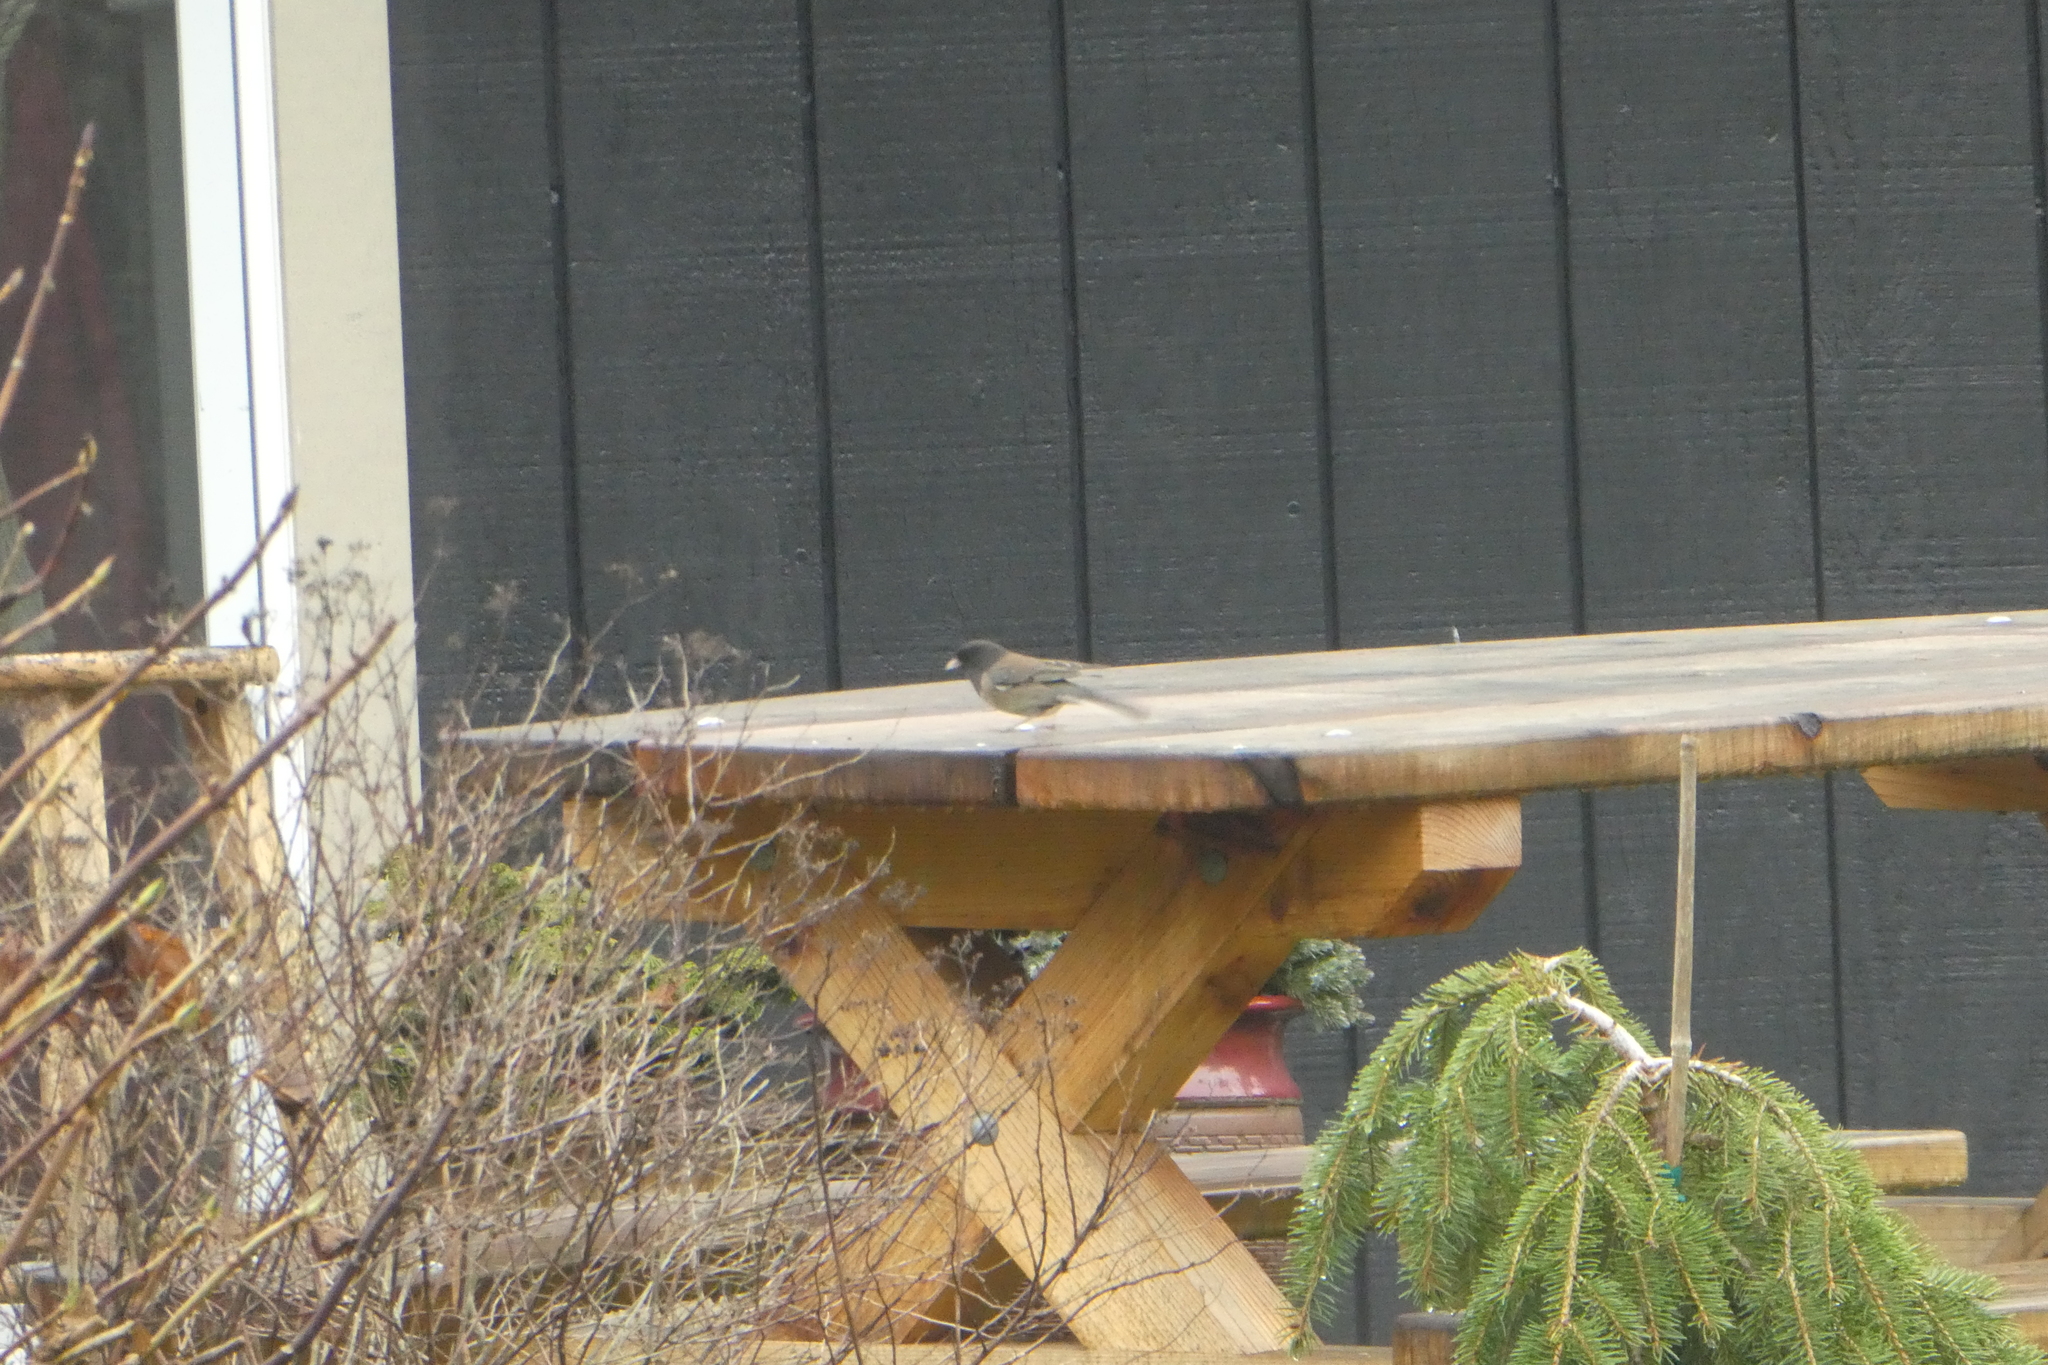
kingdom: Animalia
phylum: Chordata
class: Aves
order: Passeriformes
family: Passerellidae
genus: Junco
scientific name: Junco hyemalis
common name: Dark-eyed junco
